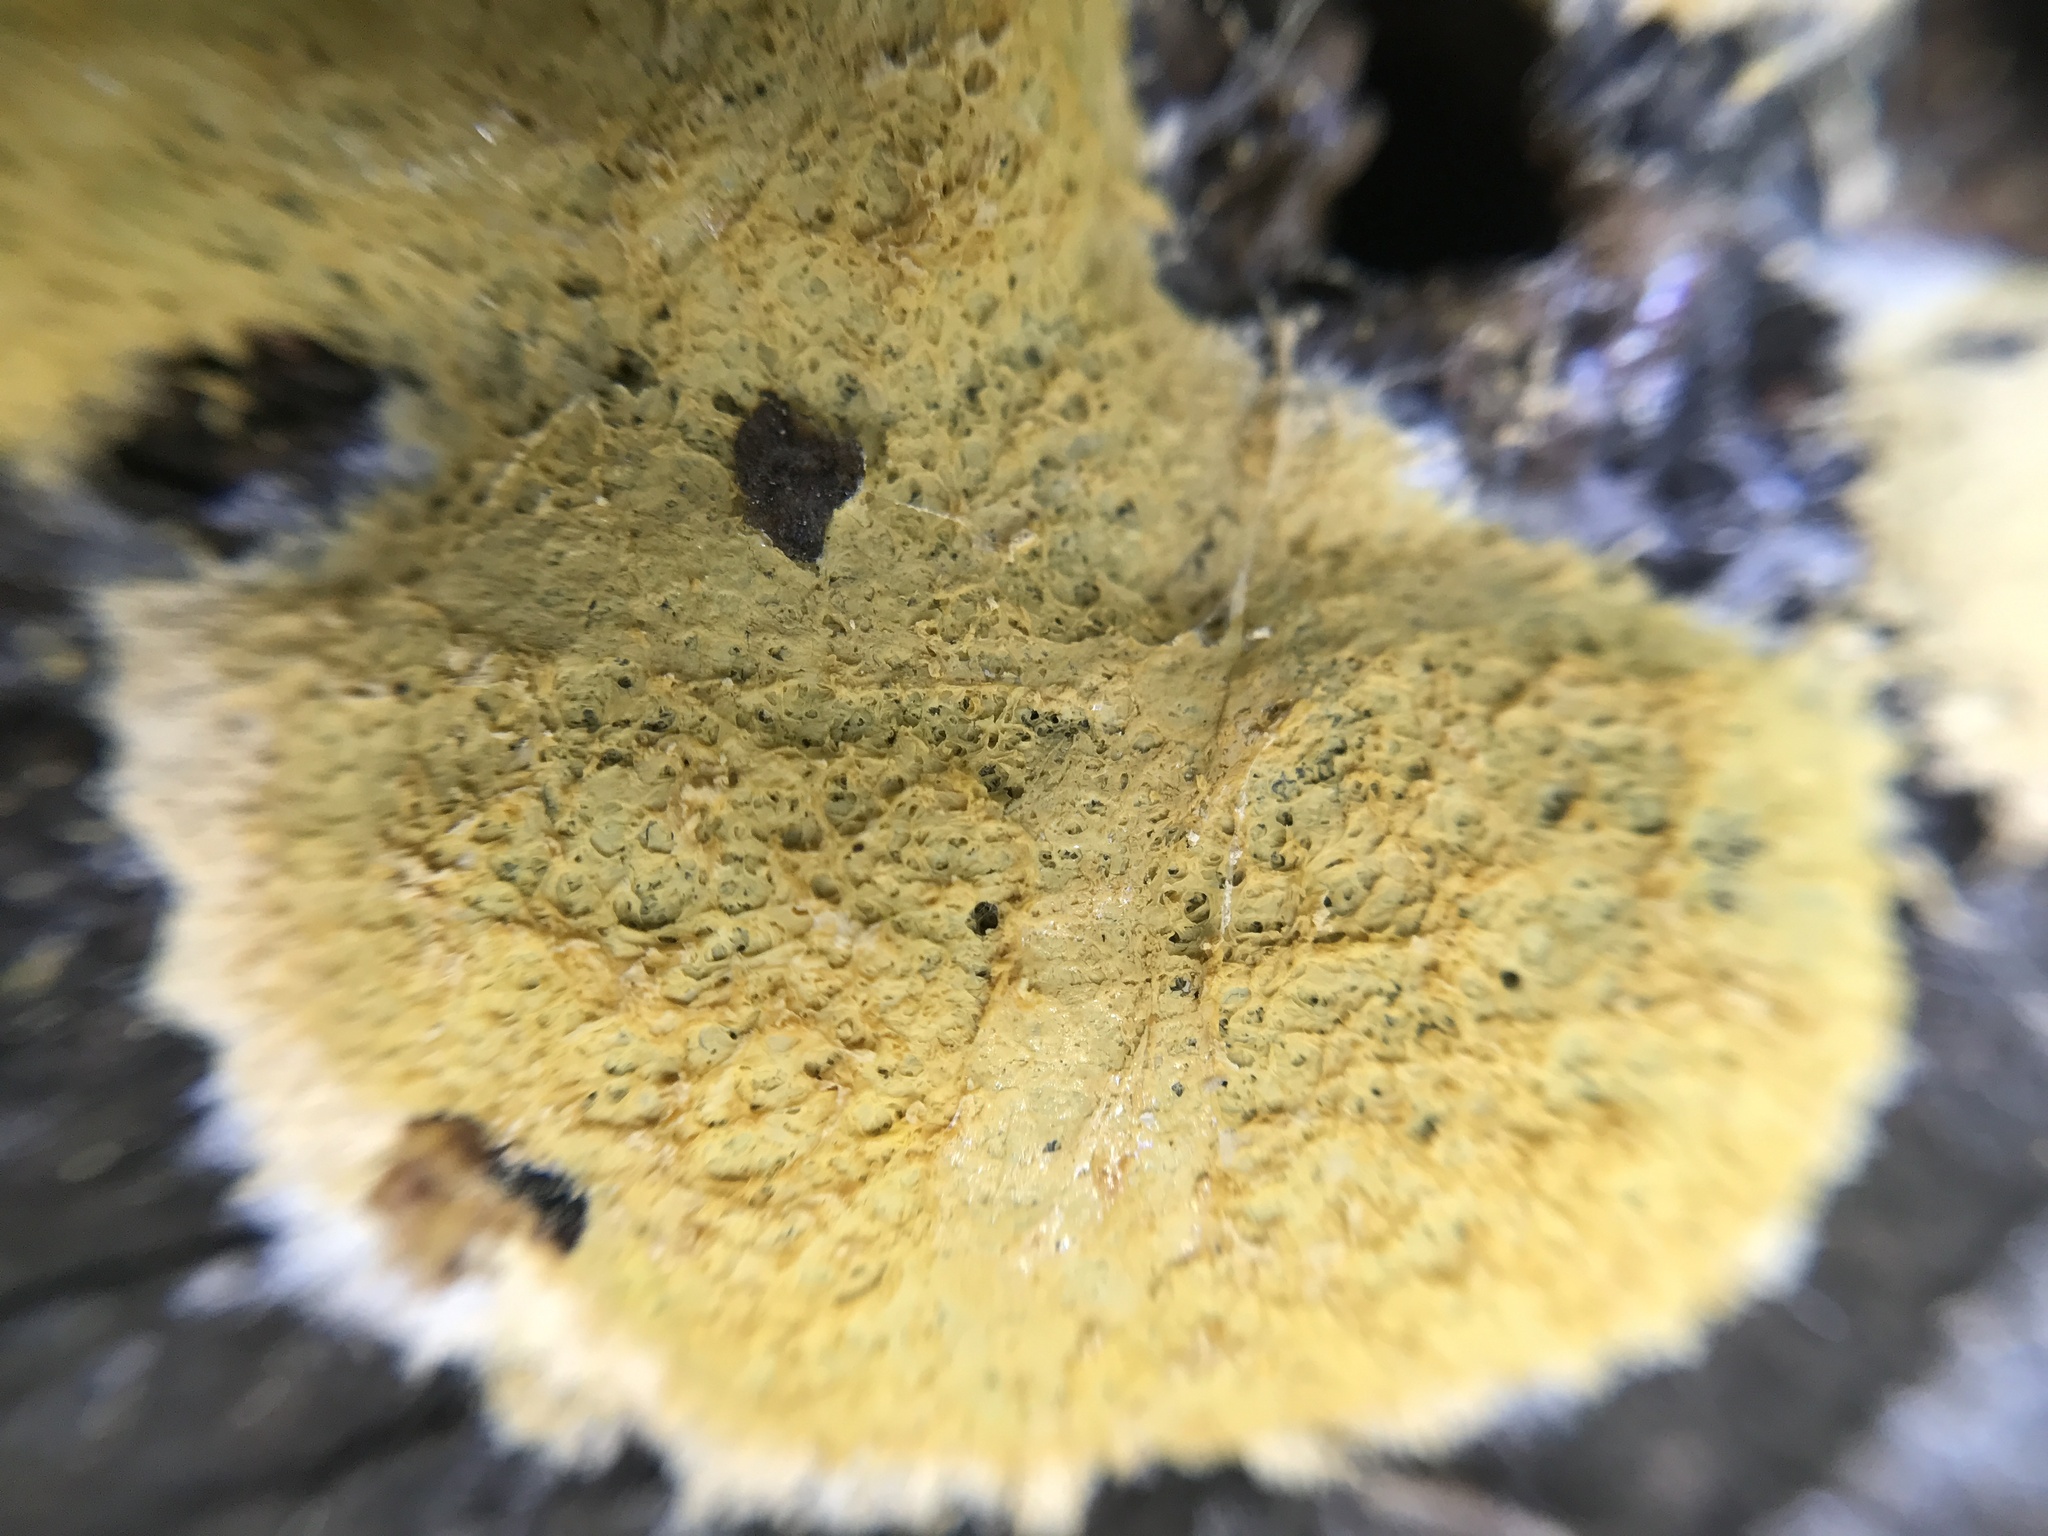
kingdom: Protozoa
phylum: Mycetozoa
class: Myxomycetes
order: Physarales
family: Physaraceae
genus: Fuligo
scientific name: Fuligo septica
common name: Dog vomit slime mold
